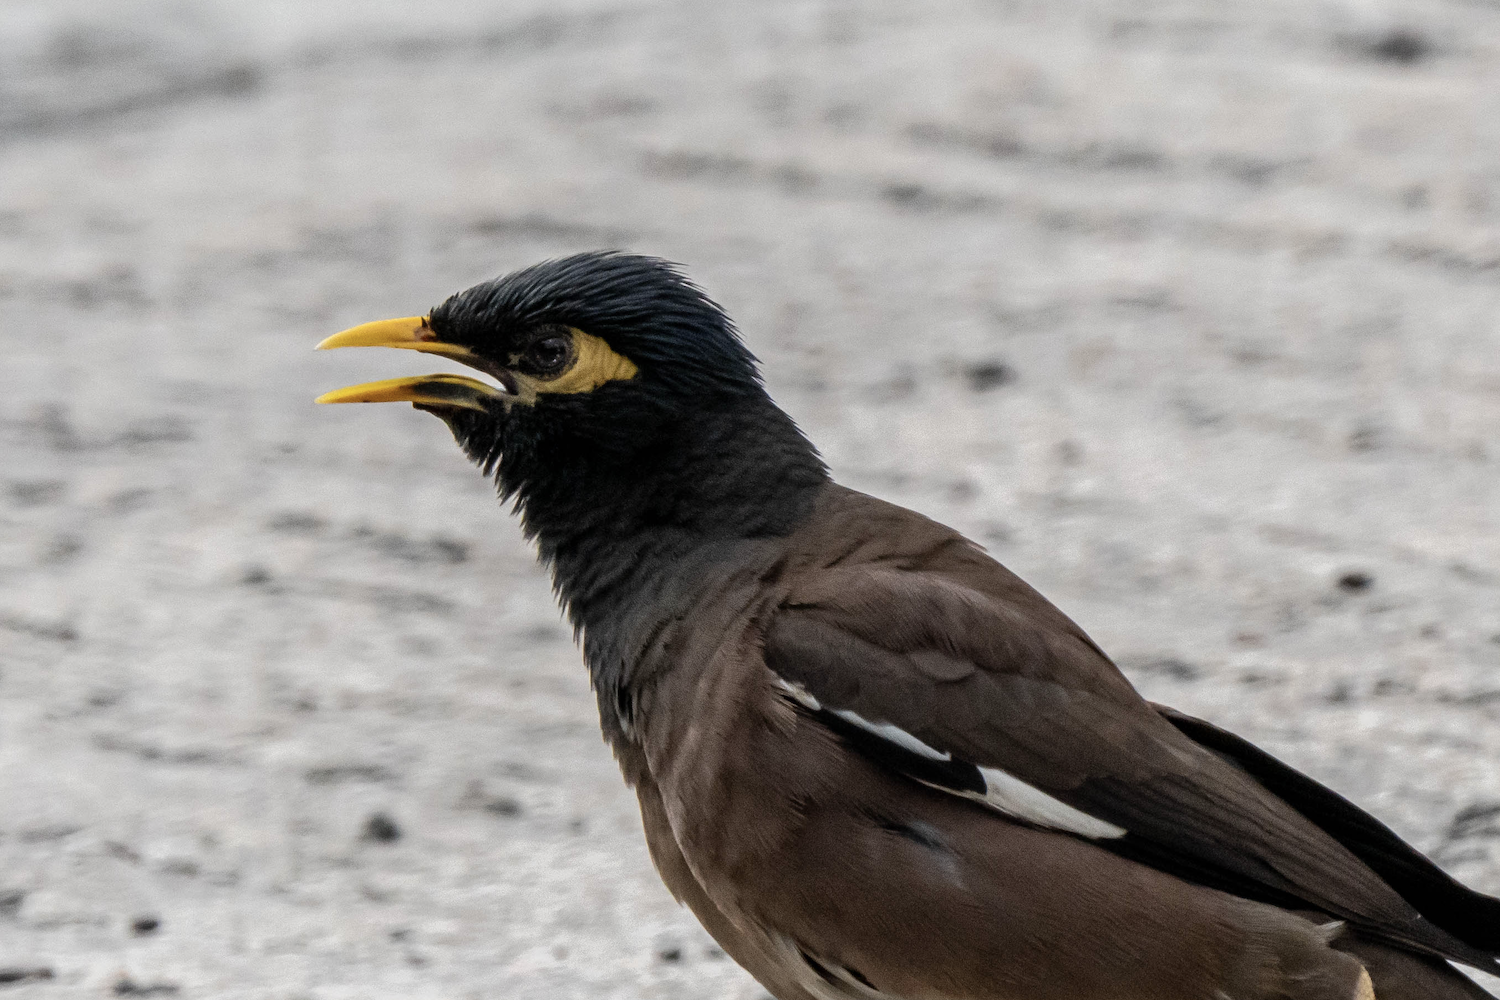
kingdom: Animalia
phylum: Chordata
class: Aves
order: Passeriformes
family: Sturnidae
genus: Acridotheres
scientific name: Acridotheres tristis
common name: Common myna
